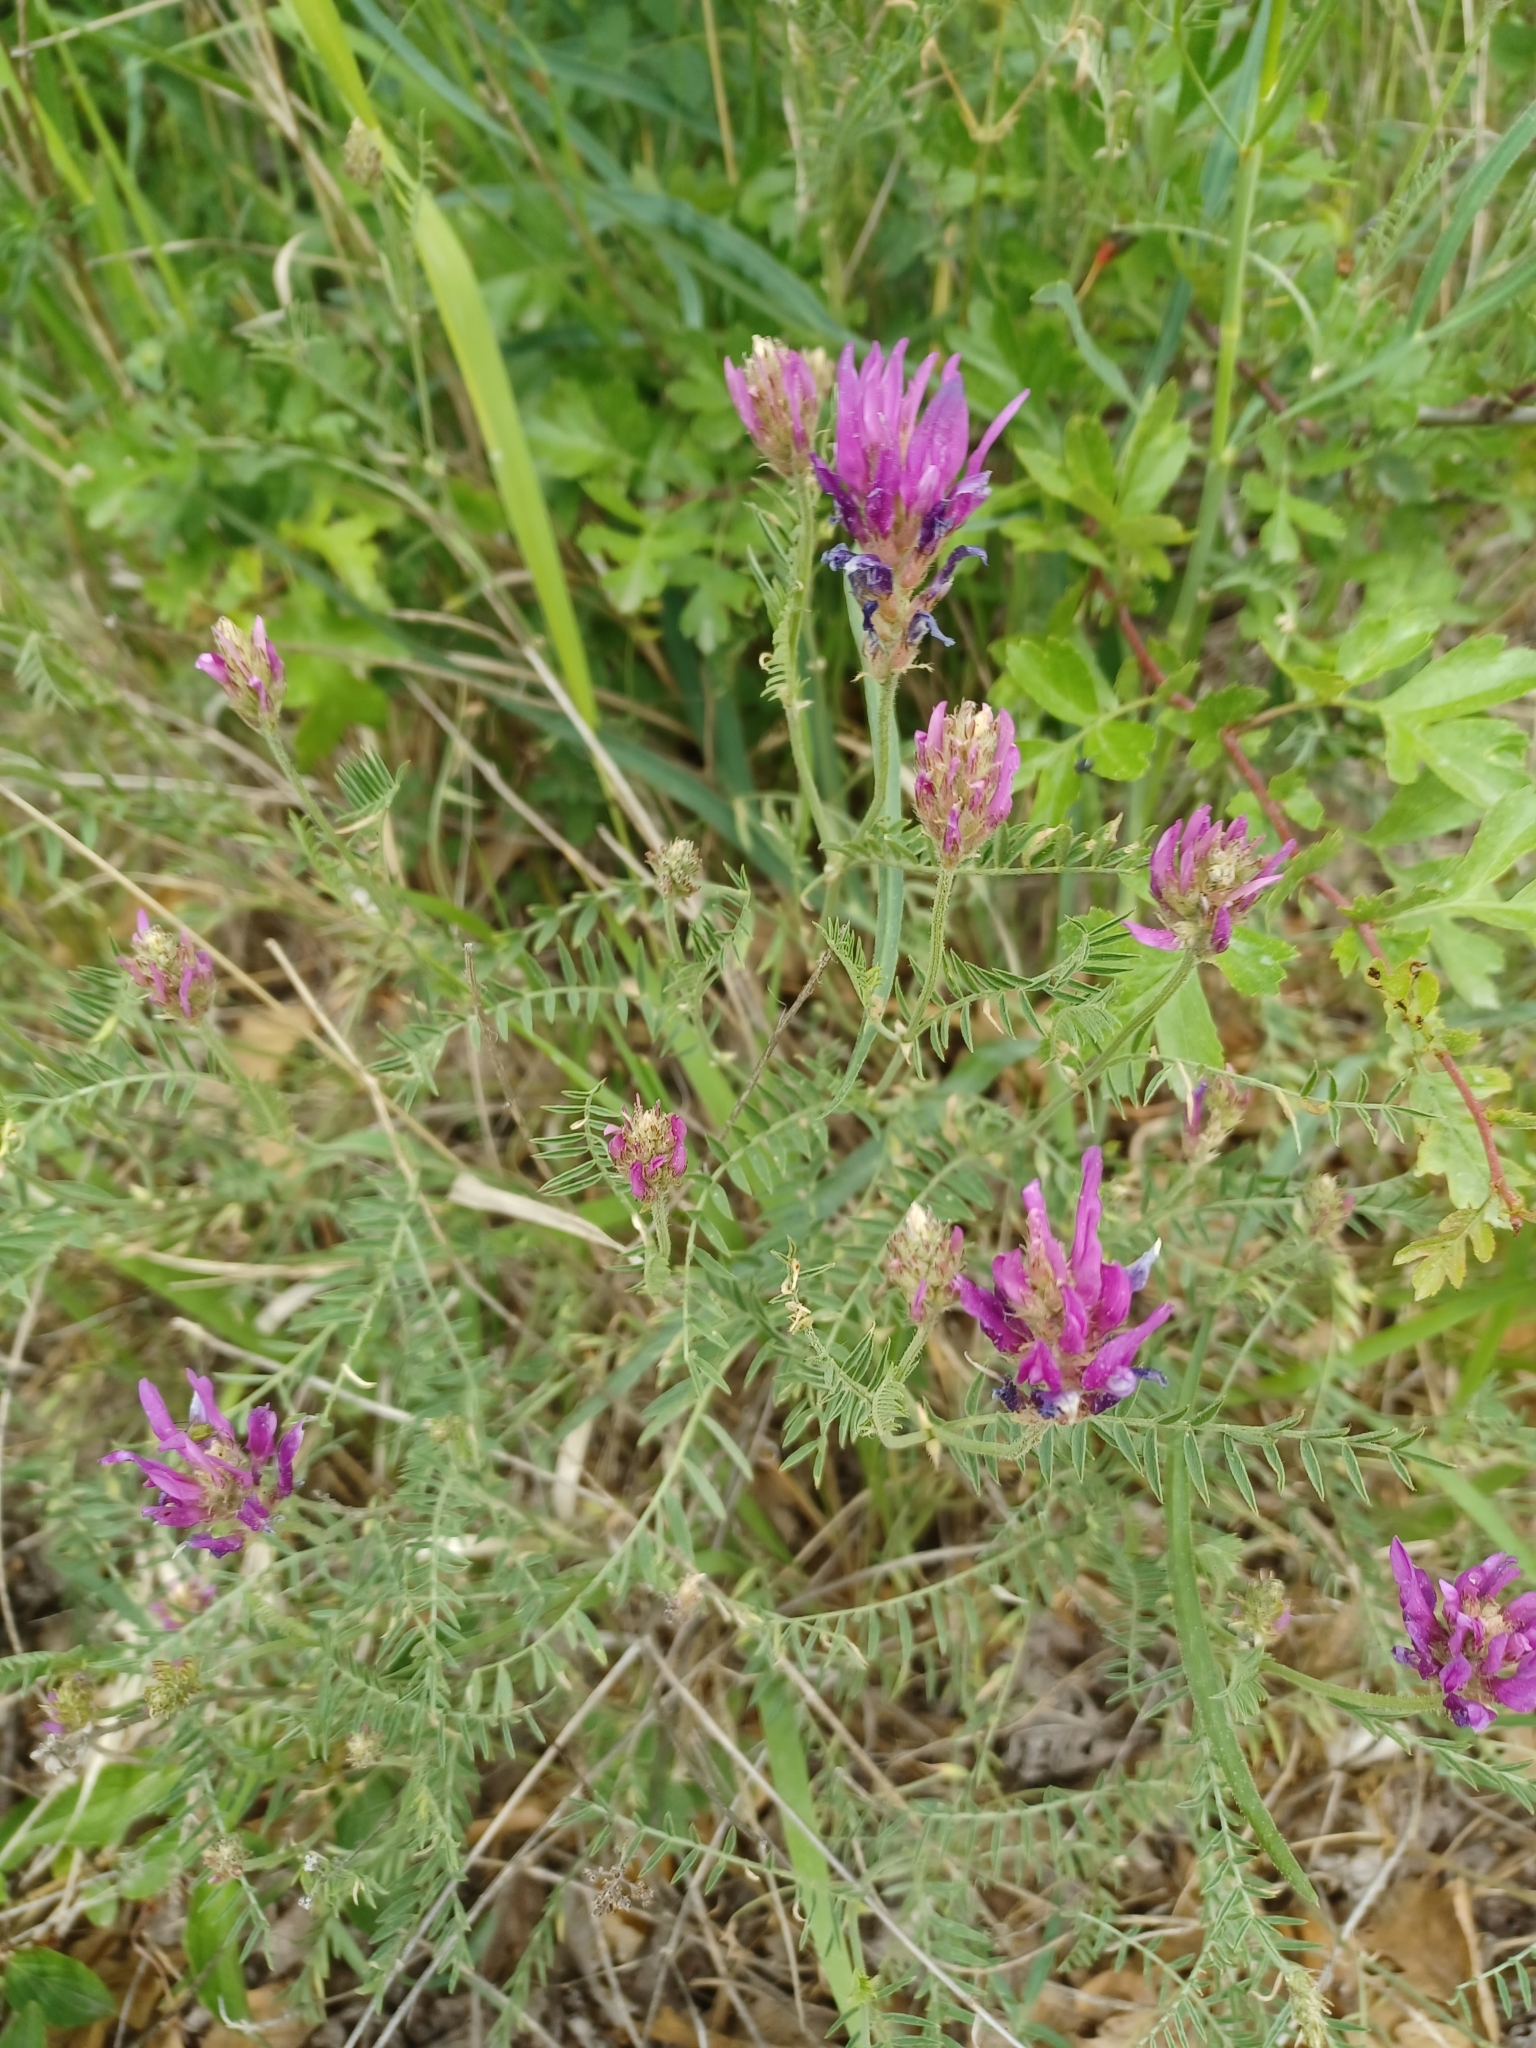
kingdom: Plantae
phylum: Tracheophyta
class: Magnoliopsida
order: Fabales
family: Fabaceae
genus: Astragalus
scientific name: Astragalus onobrychis
